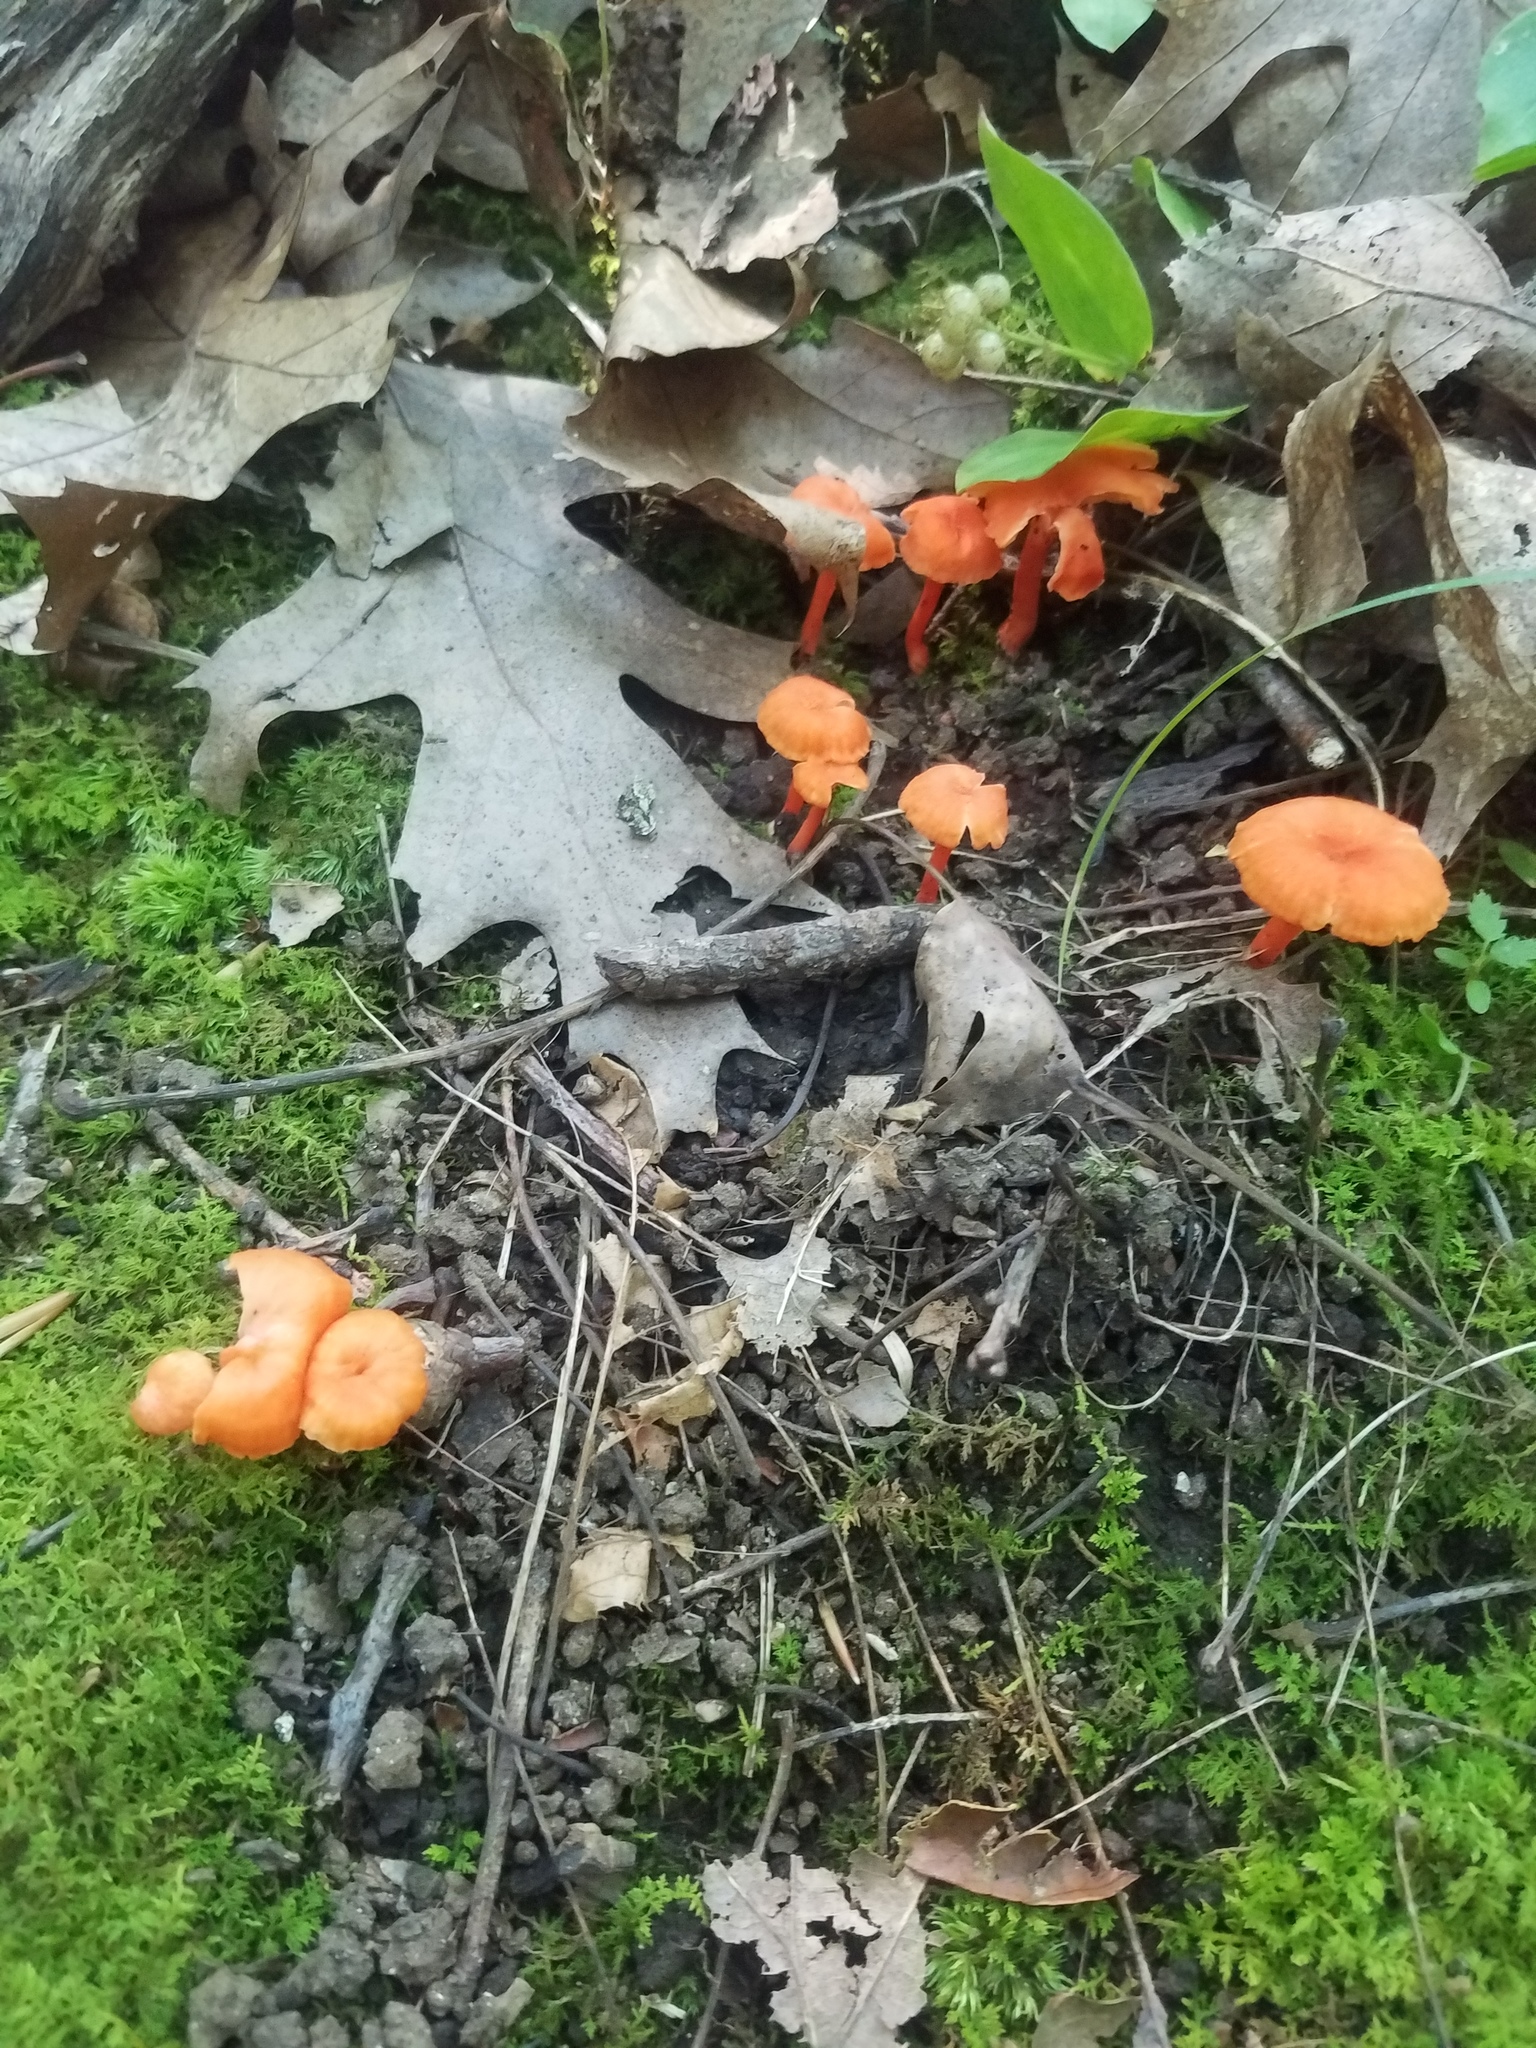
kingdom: Fungi
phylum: Basidiomycota
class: Agaricomycetes
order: Cantharellales
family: Hydnaceae
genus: Cantharellus
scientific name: Cantharellus cinnabarinus
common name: Cinnabar chanterelle
